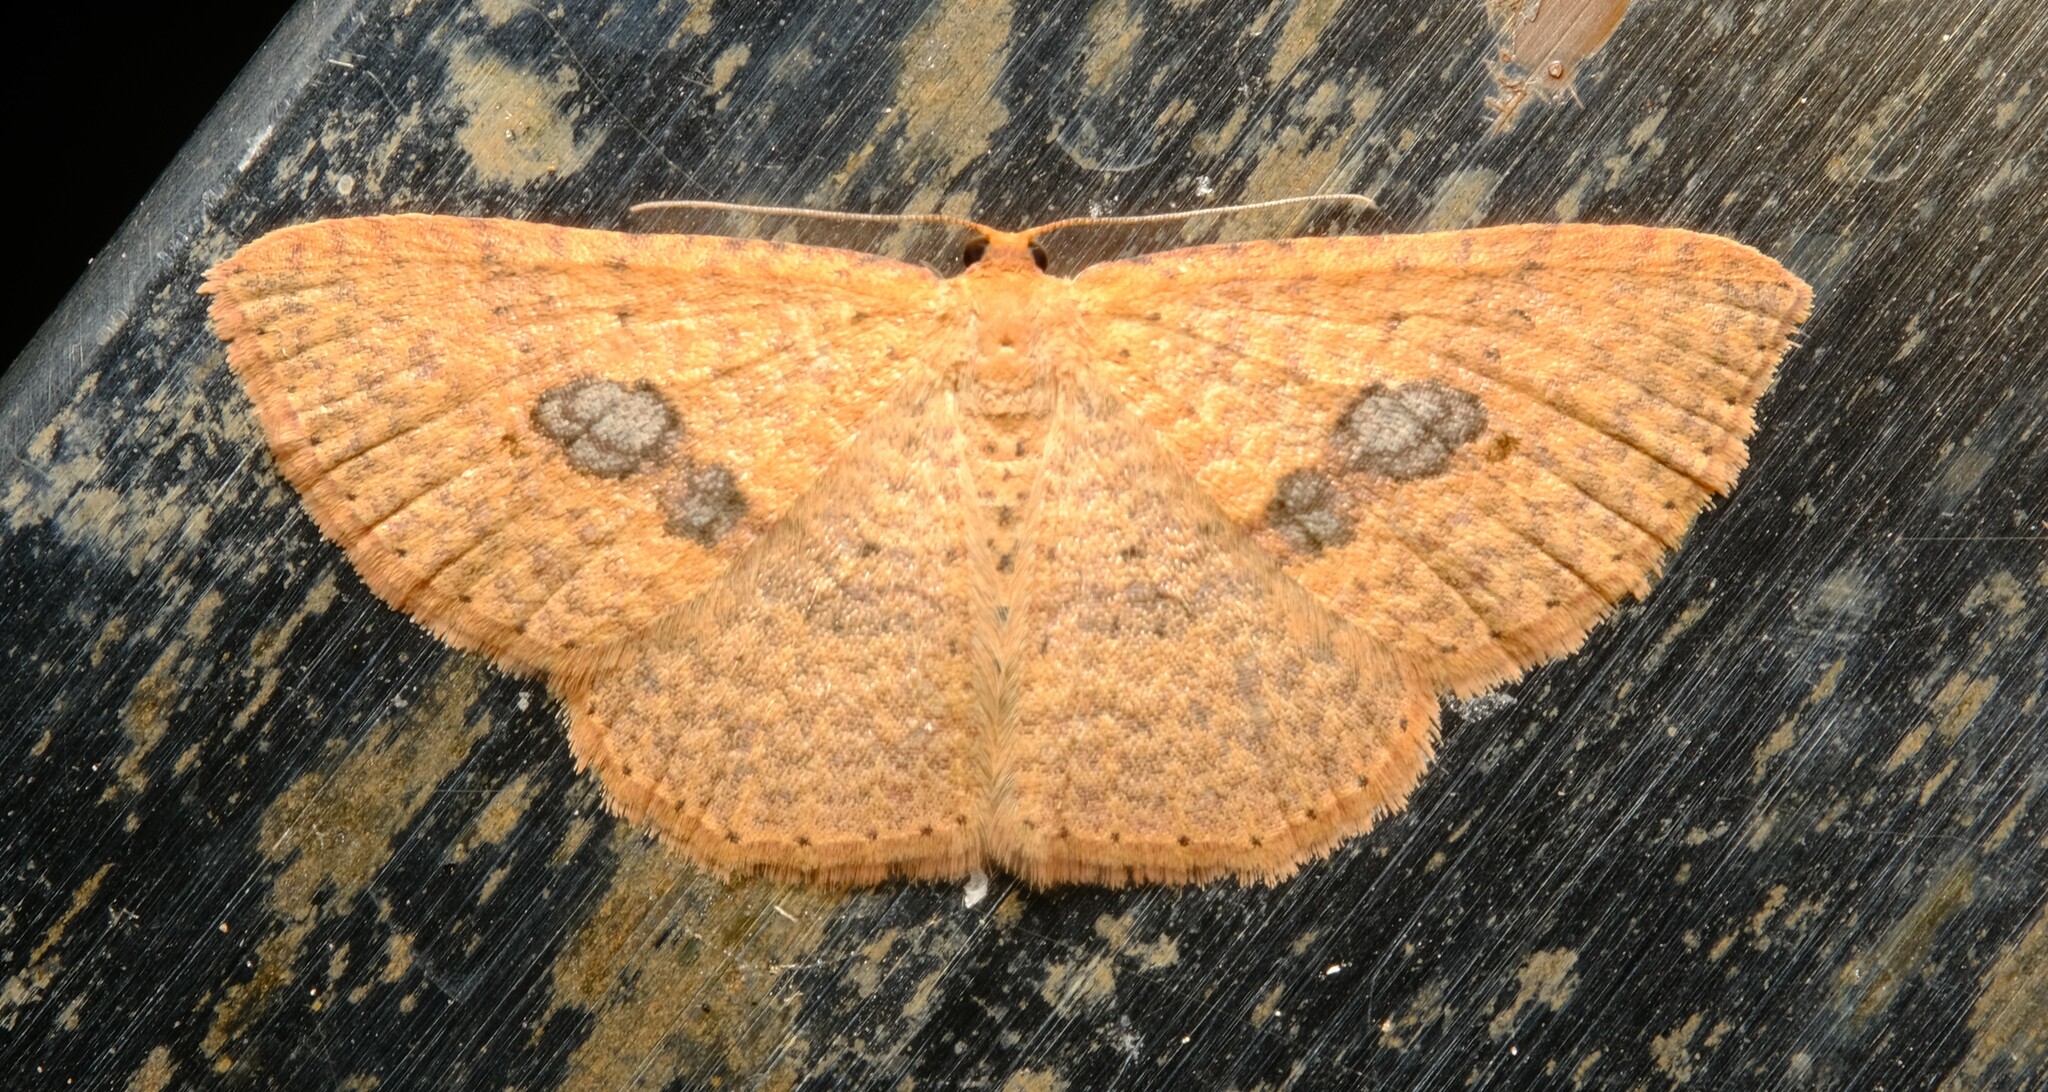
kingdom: Animalia
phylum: Arthropoda
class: Insecta
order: Lepidoptera
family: Geometridae
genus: Epicyme
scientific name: Epicyme rubropunctaria
